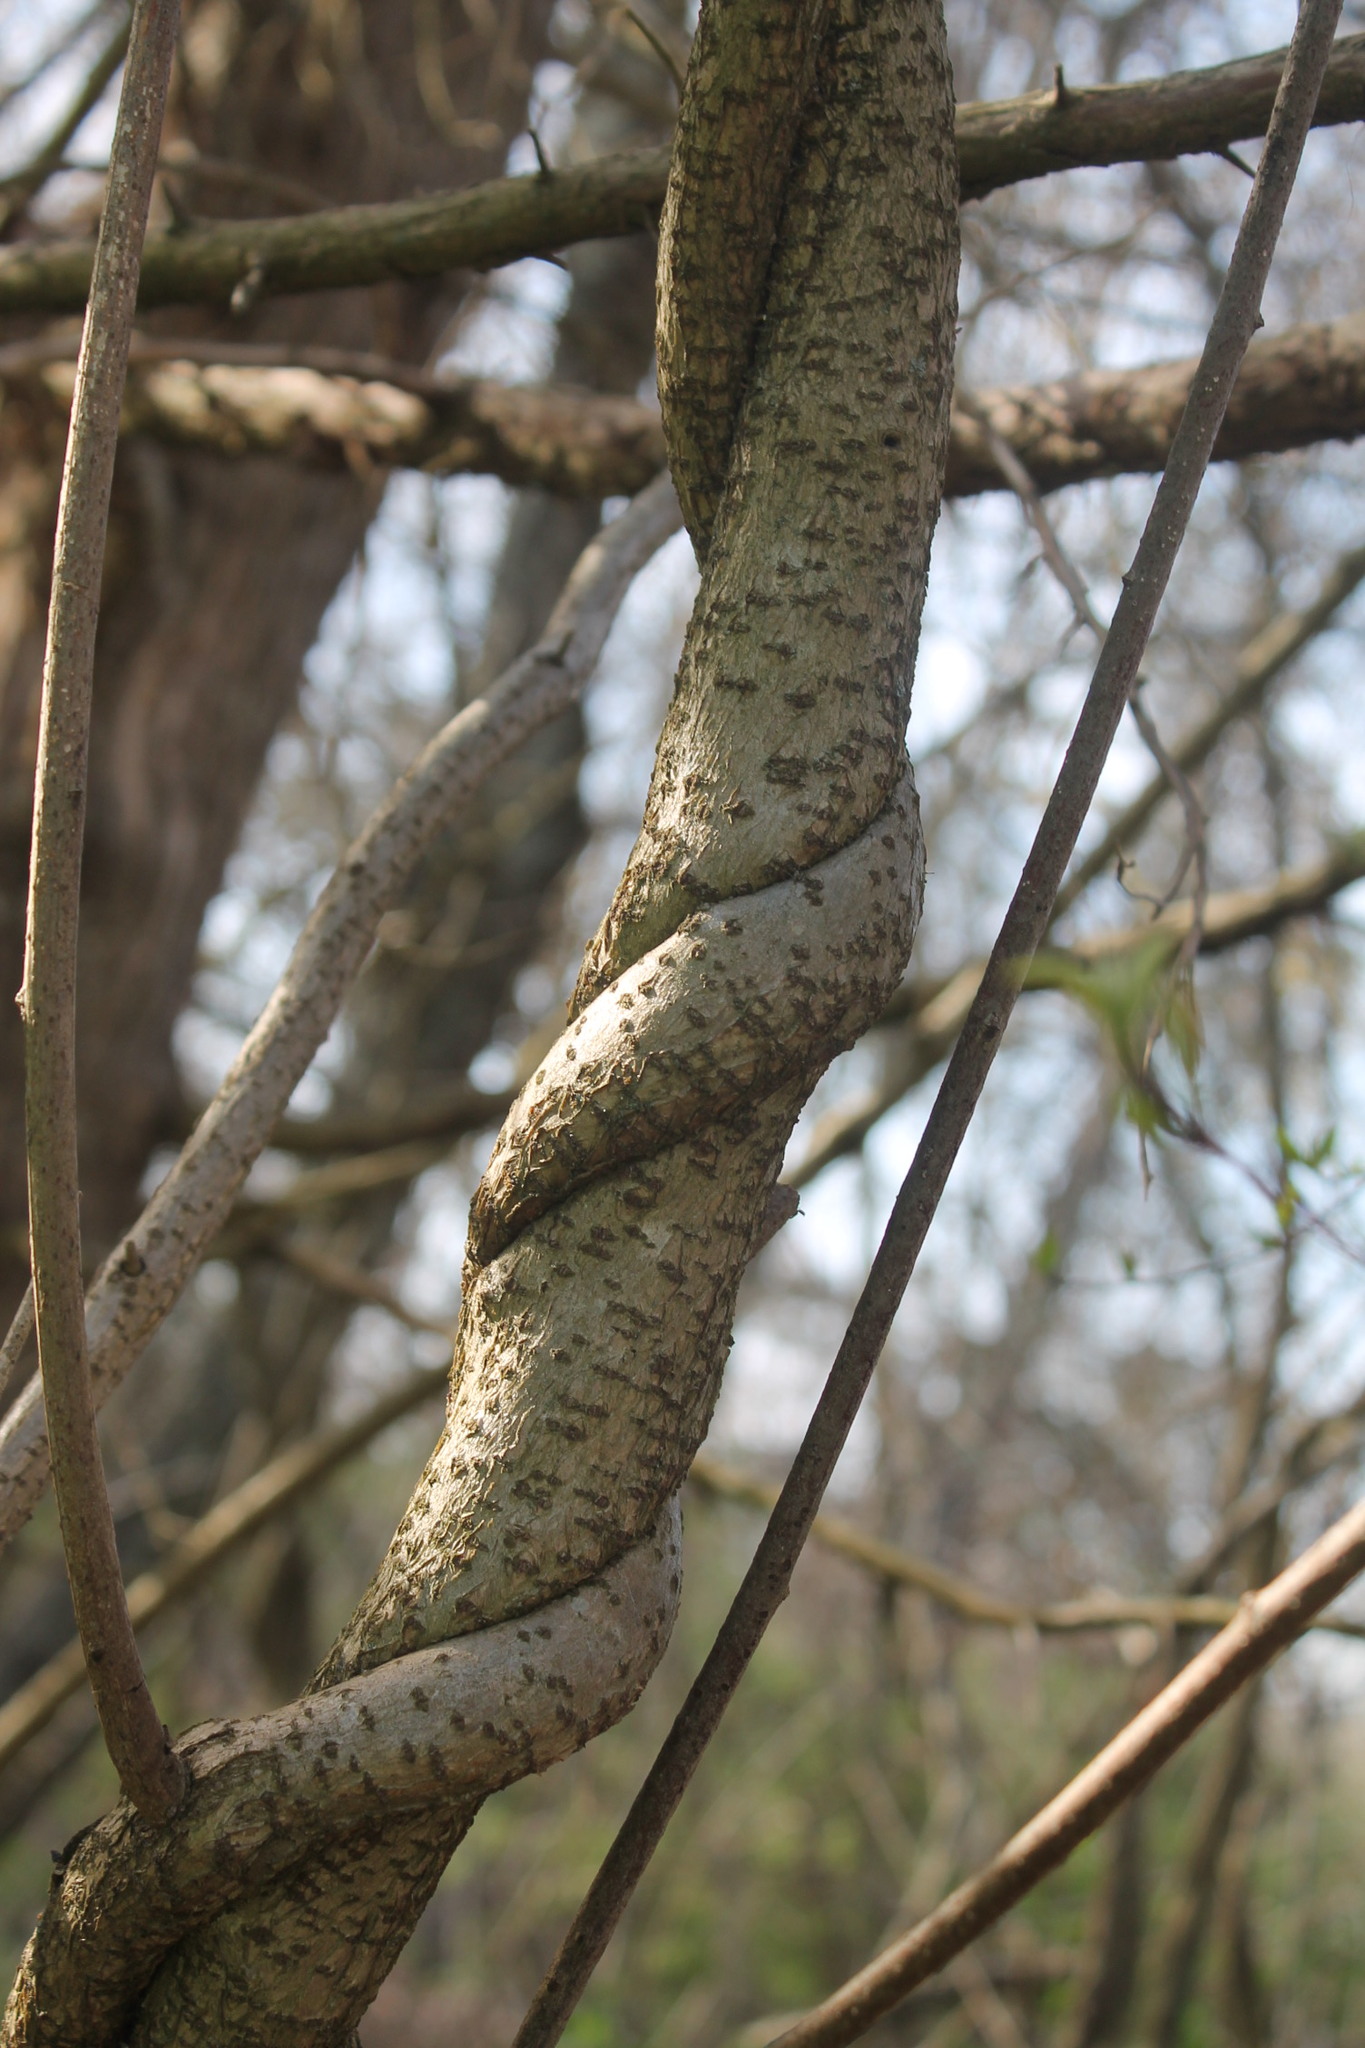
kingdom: Plantae
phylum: Tracheophyta
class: Magnoliopsida
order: Celastrales
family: Celastraceae
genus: Celastrus
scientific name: Celastrus orbiculatus
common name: Oriental bittersweet
